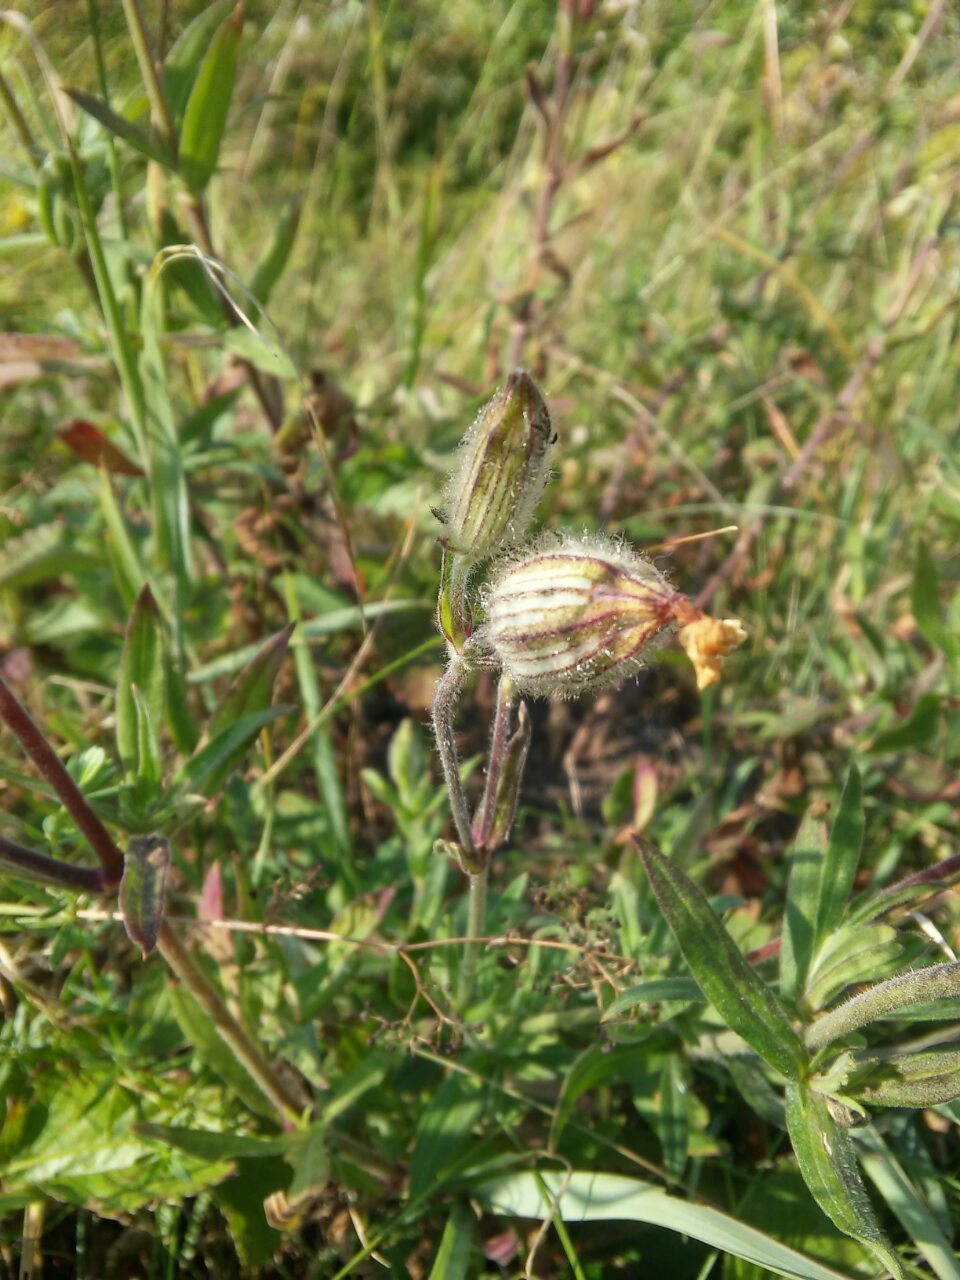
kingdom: Plantae
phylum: Tracheophyta
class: Magnoliopsida
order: Caryophyllales
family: Caryophyllaceae
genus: Silene
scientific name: Silene latifolia
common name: White campion
